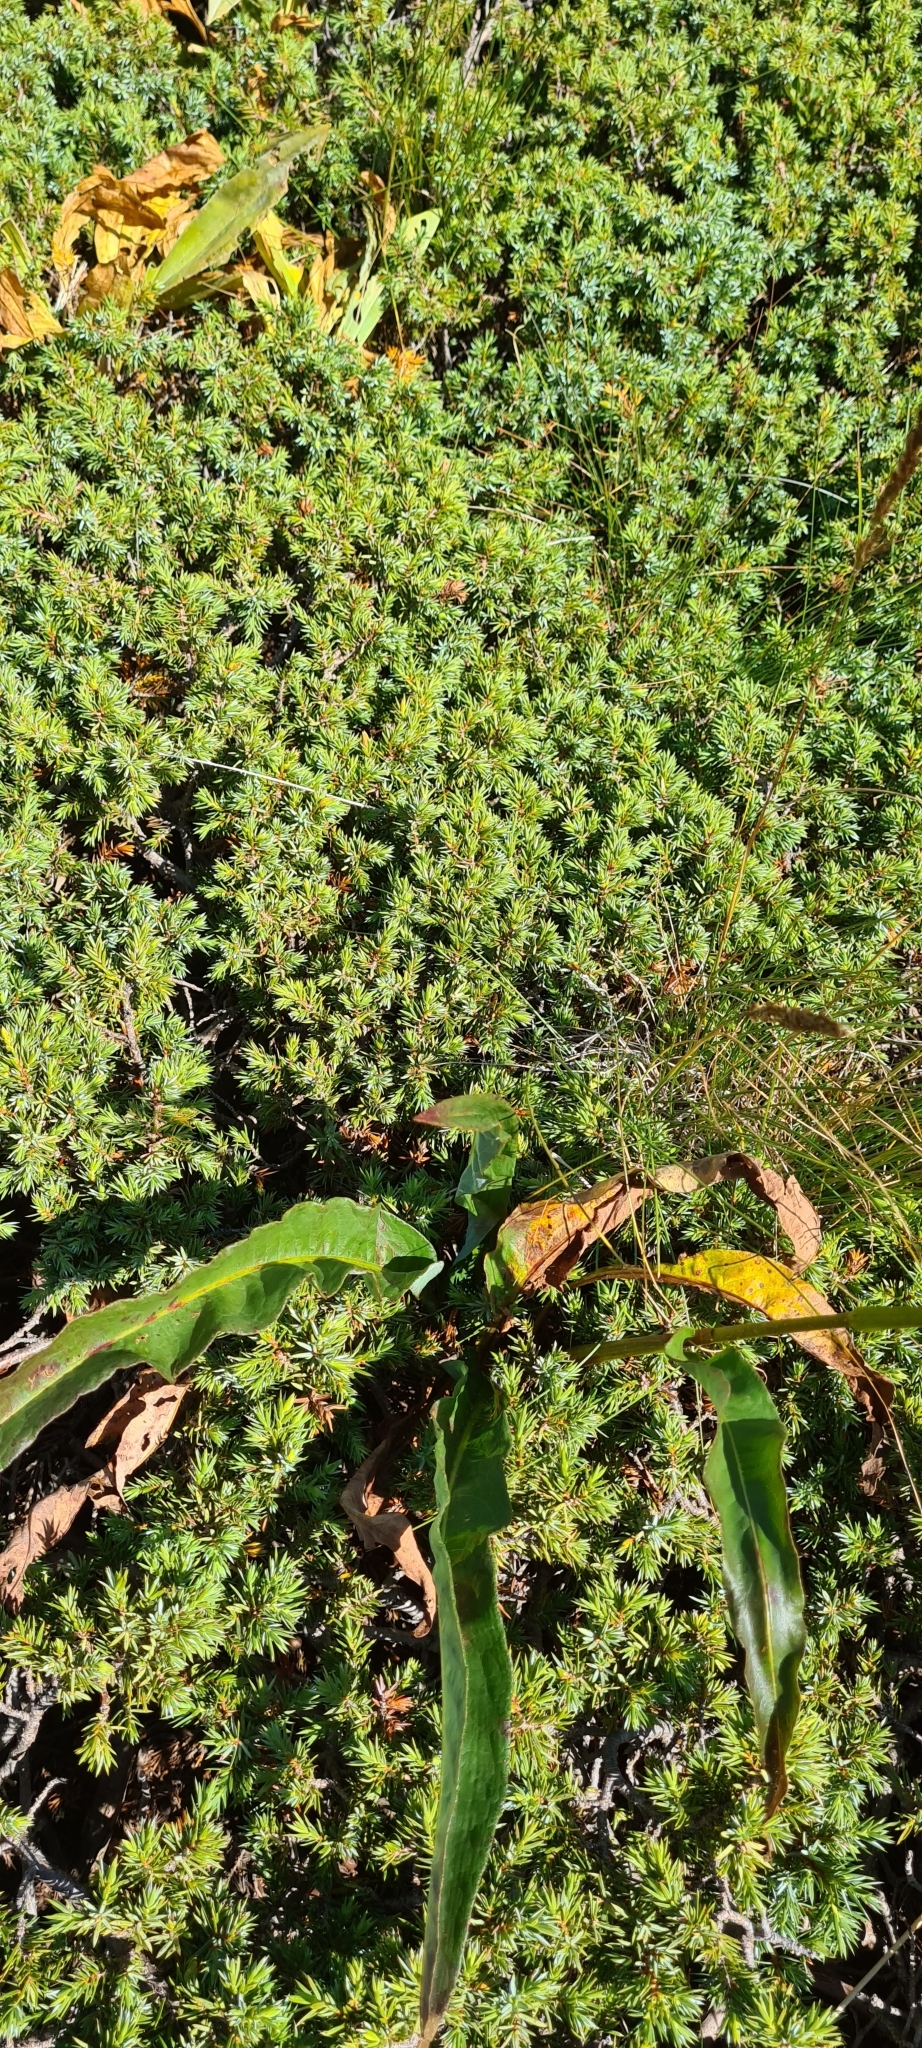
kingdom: Plantae
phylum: Tracheophyta
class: Magnoliopsida
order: Caryophyllales
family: Polygonaceae
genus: Bistorta
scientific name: Bistorta officinalis
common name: Common bistort
